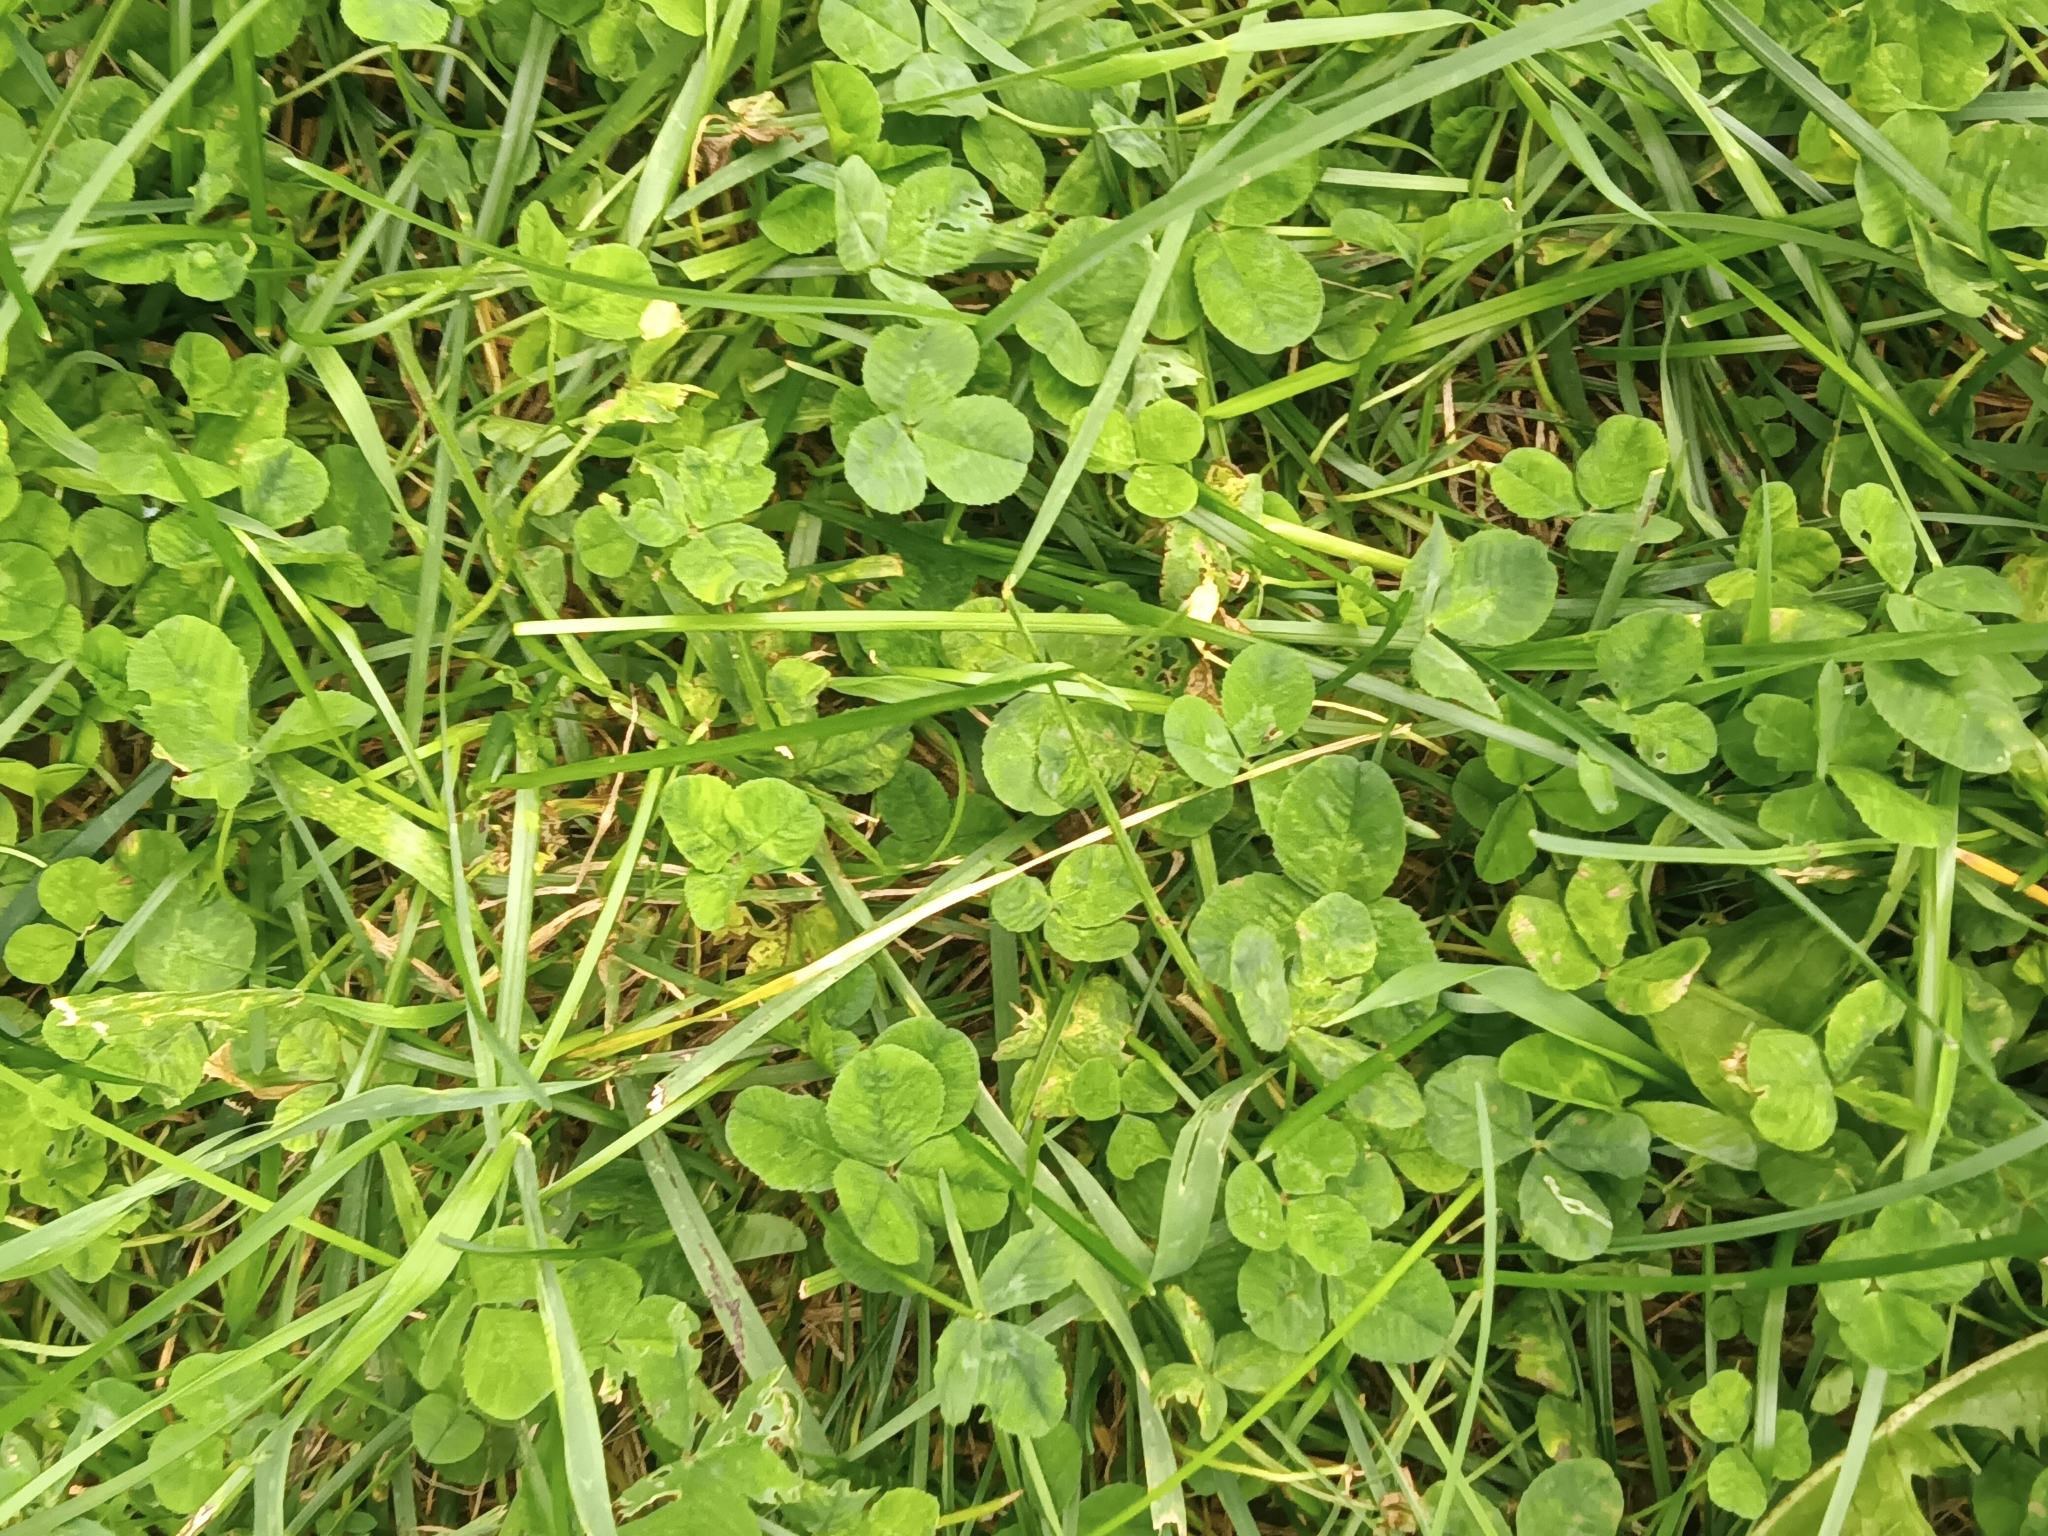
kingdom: Plantae
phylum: Tracheophyta
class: Magnoliopsida
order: Fabales
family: Fabaceae
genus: Trifolium
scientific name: Trifolium repens
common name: White clover
